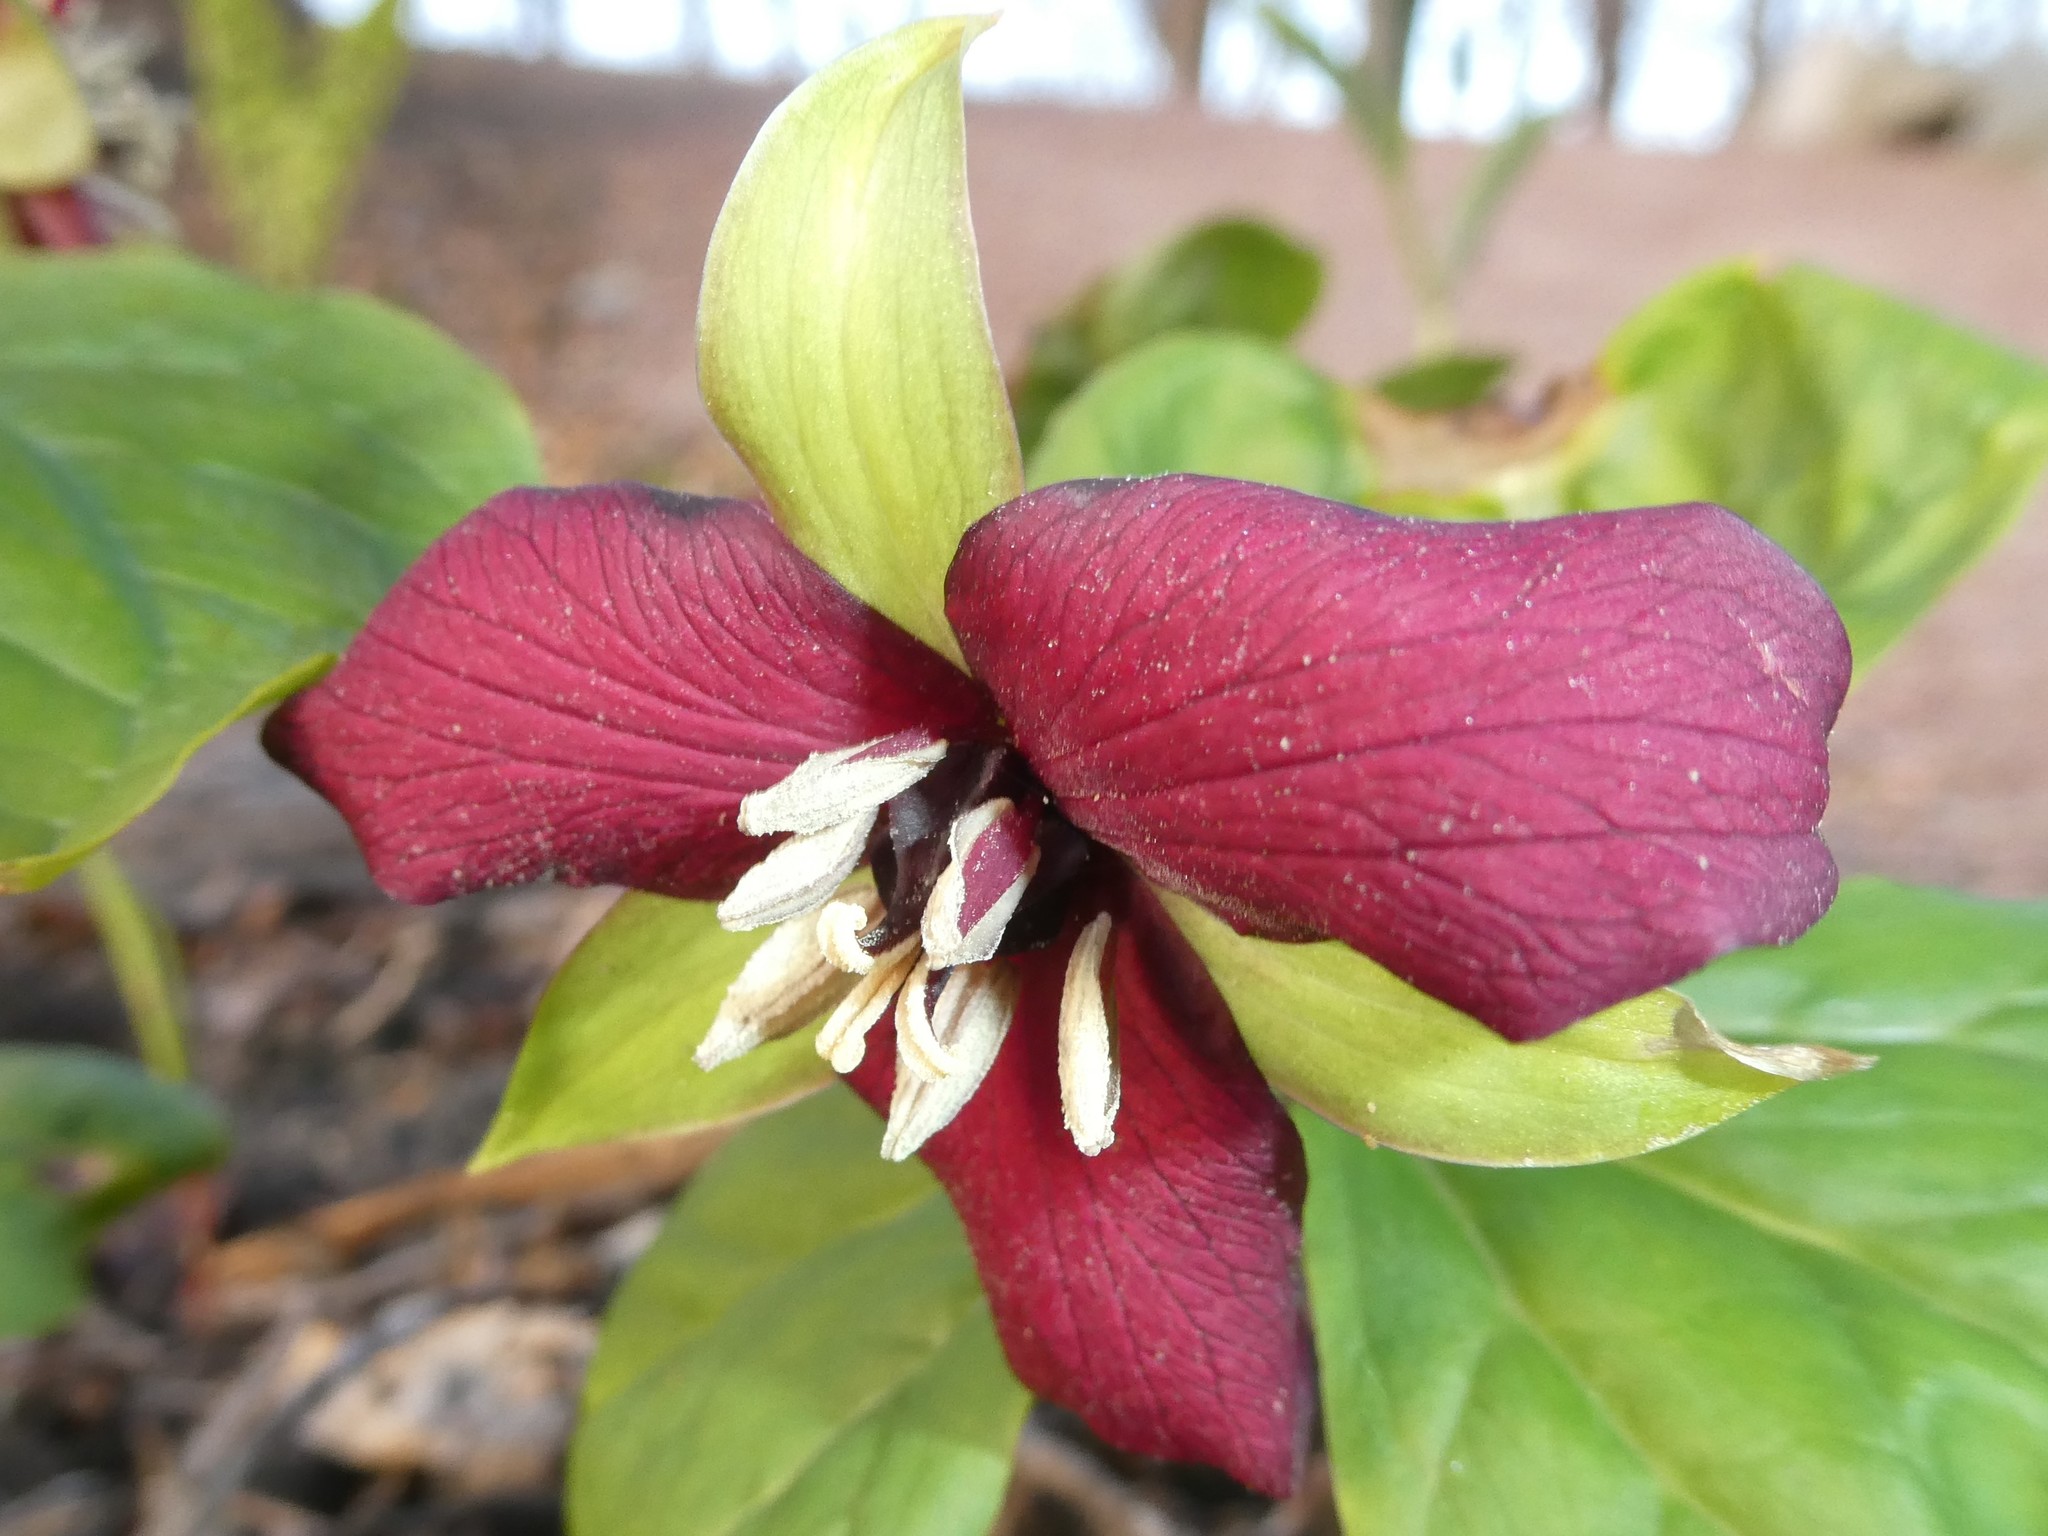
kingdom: Plantae
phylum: Tracheophyta
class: Liliopsida
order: Liliales
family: Melanthiaceae
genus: Trillium
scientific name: Trillium erectum
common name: Purple trillium
